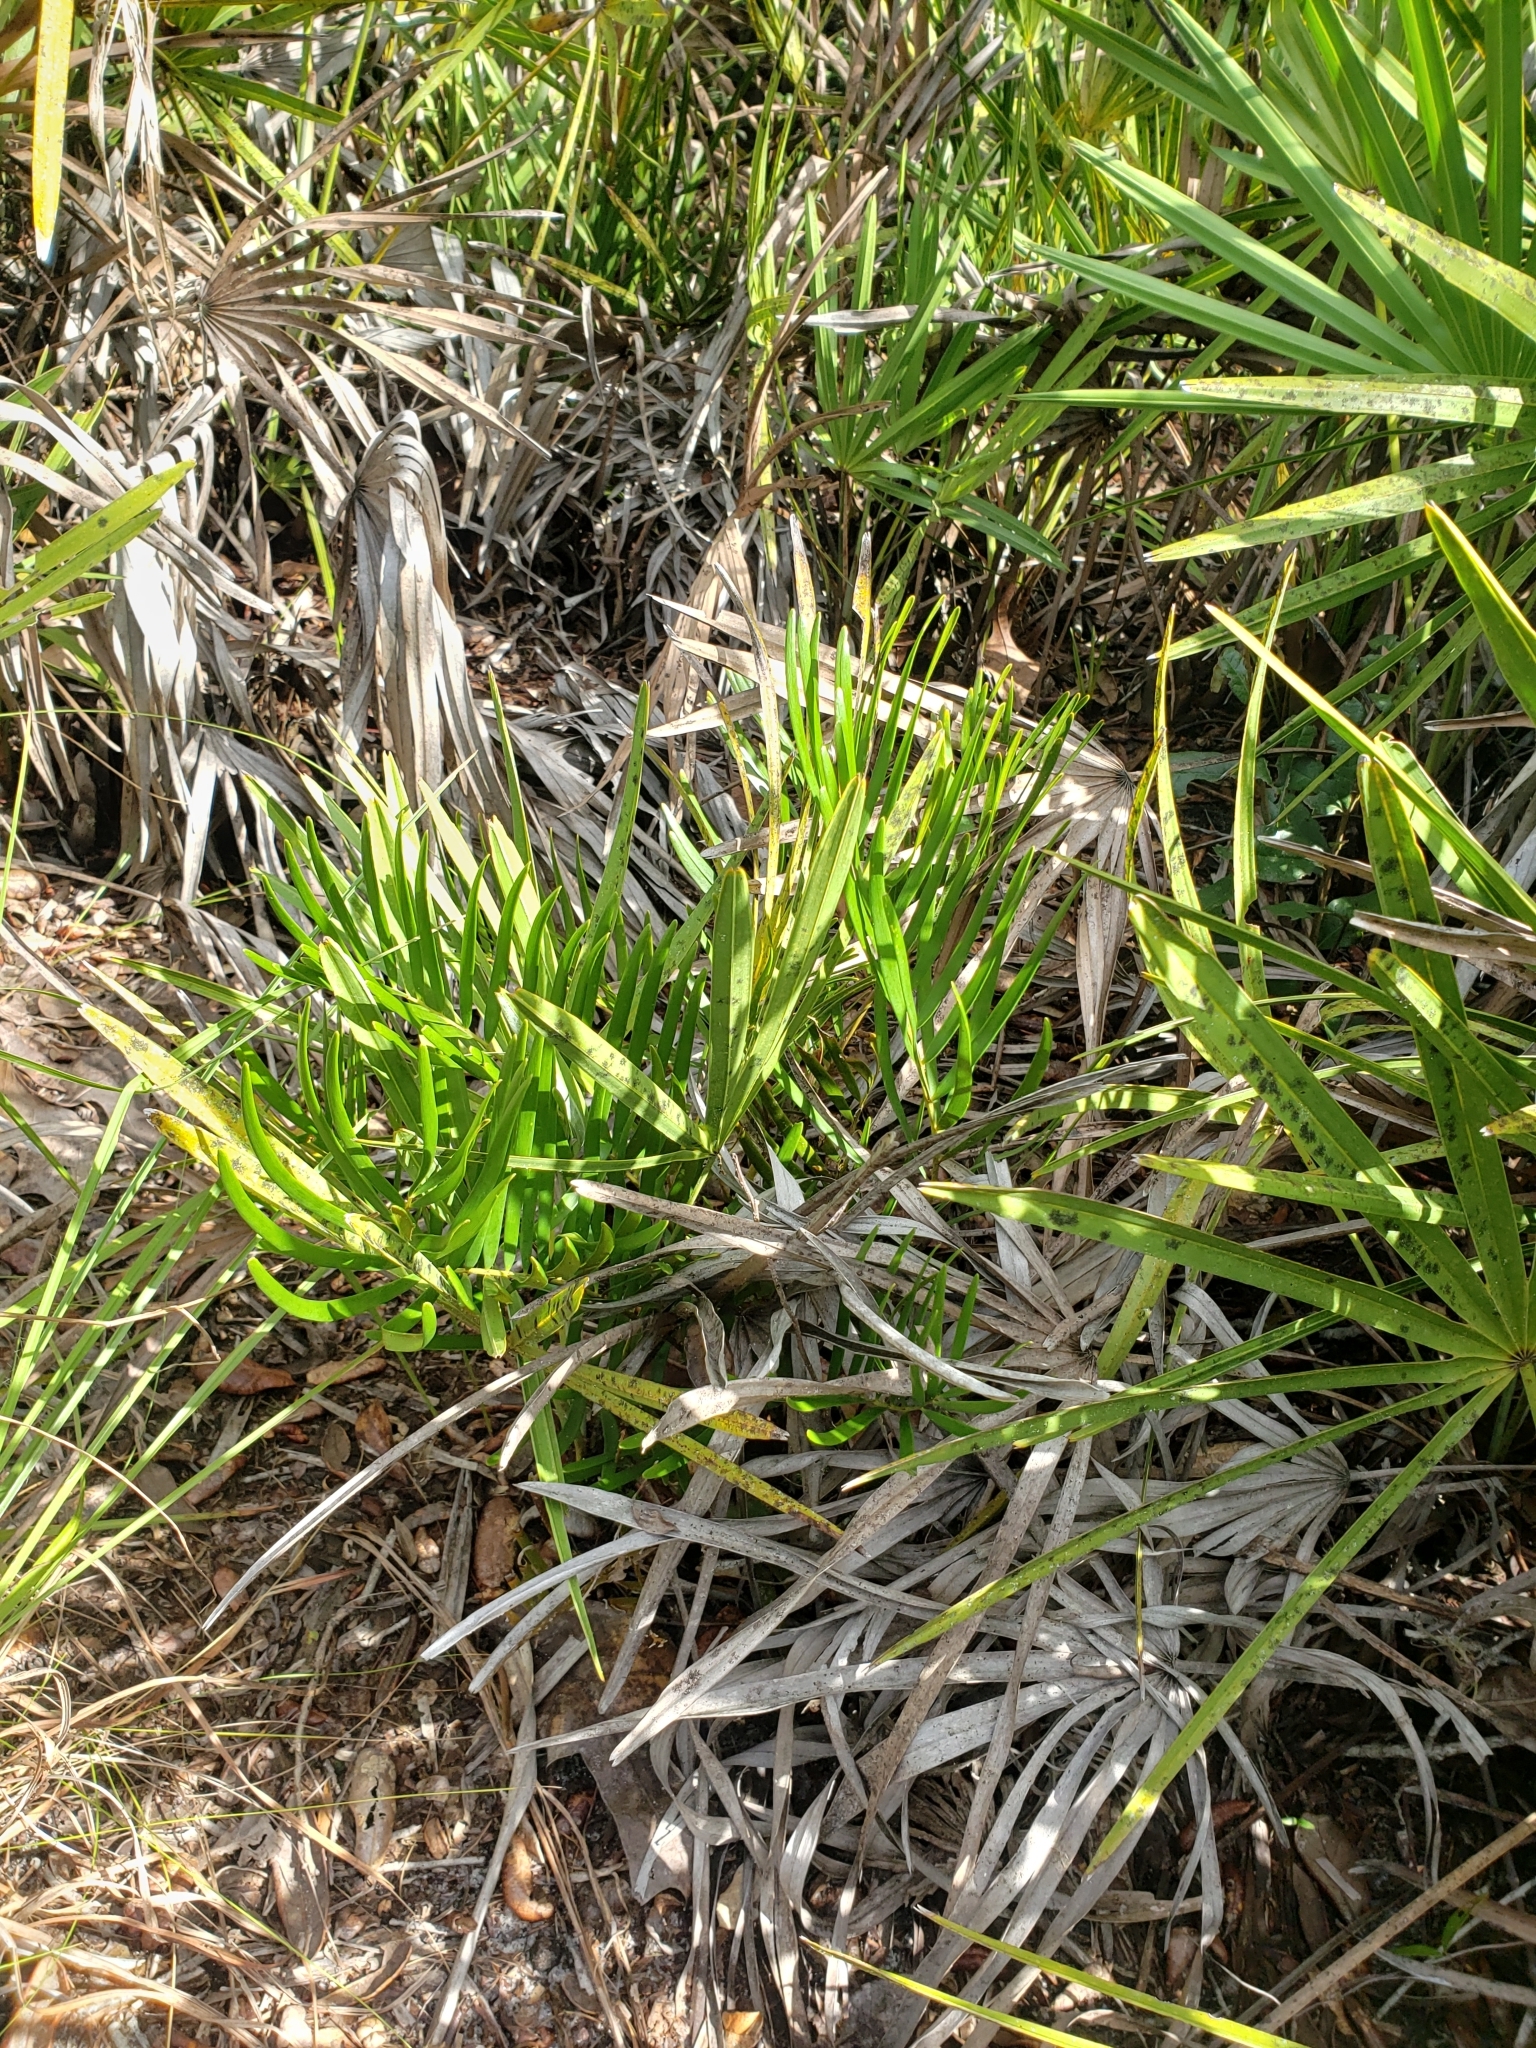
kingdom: Plantae
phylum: Tracheophyta
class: Cycadopsida
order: Cycadales
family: Zamiaceae
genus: Zamia
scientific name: Zamia integrifolia
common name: Florida arrowroot
